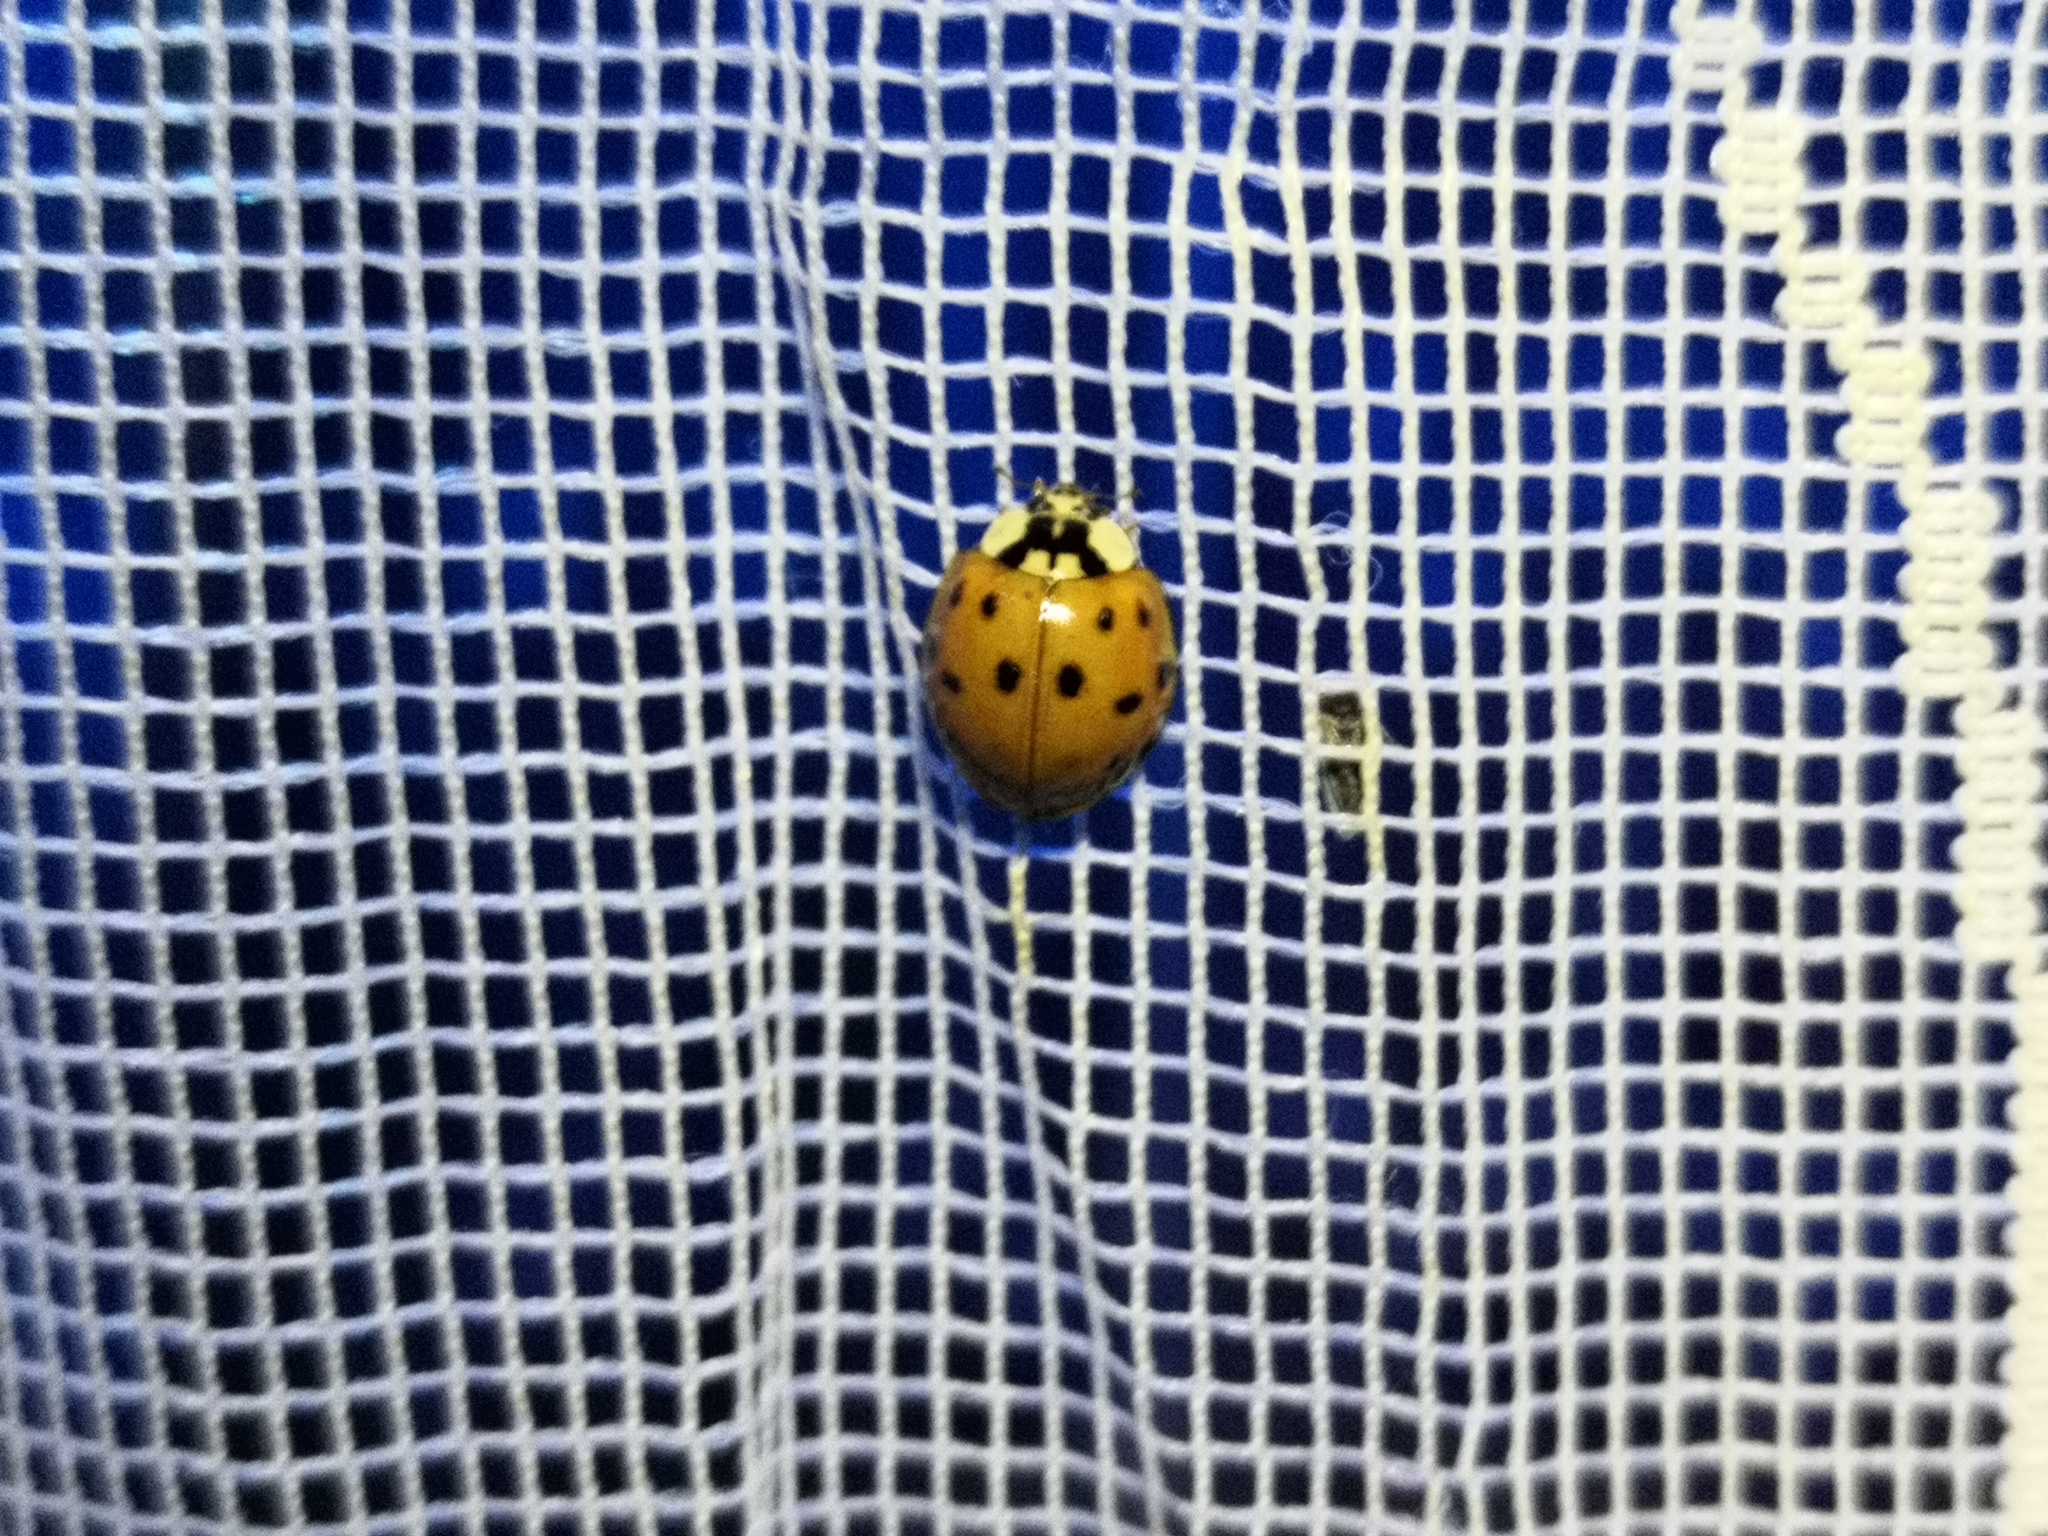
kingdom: Animalia
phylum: Arthropoda
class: Insecta
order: Coleoptera
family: Coccinellidae
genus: Harmonia
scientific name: Harmonia axyridis
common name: Harlequin ladybird
